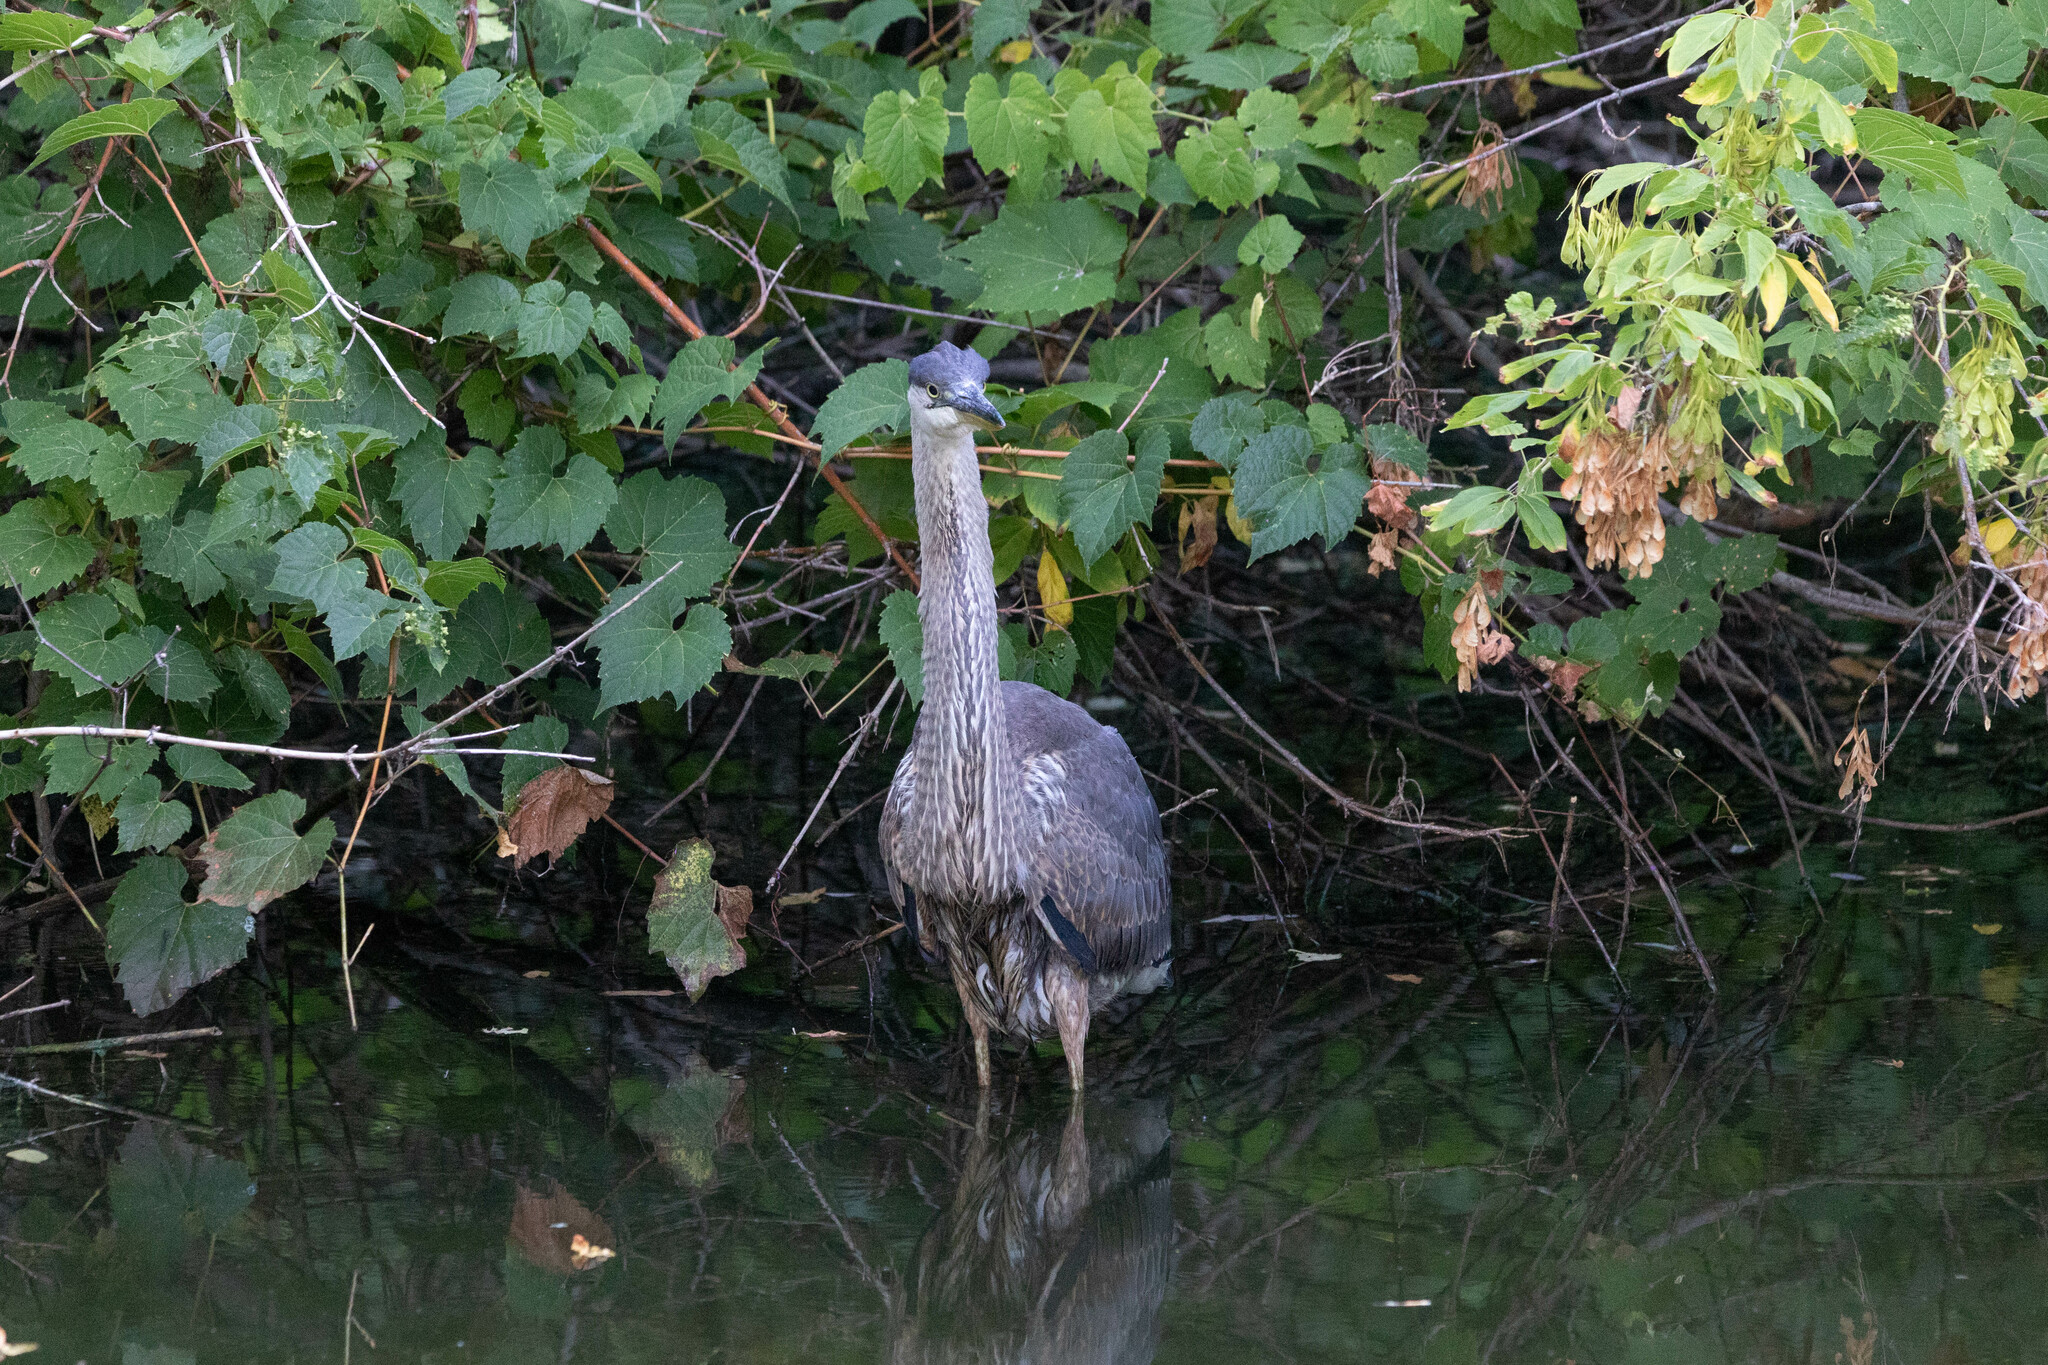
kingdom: Animalia
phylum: Chordata
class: Aves
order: Pelecaniformes
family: Ardeidae
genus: Ardea
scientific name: Ardea herodias
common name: Great blue heron
